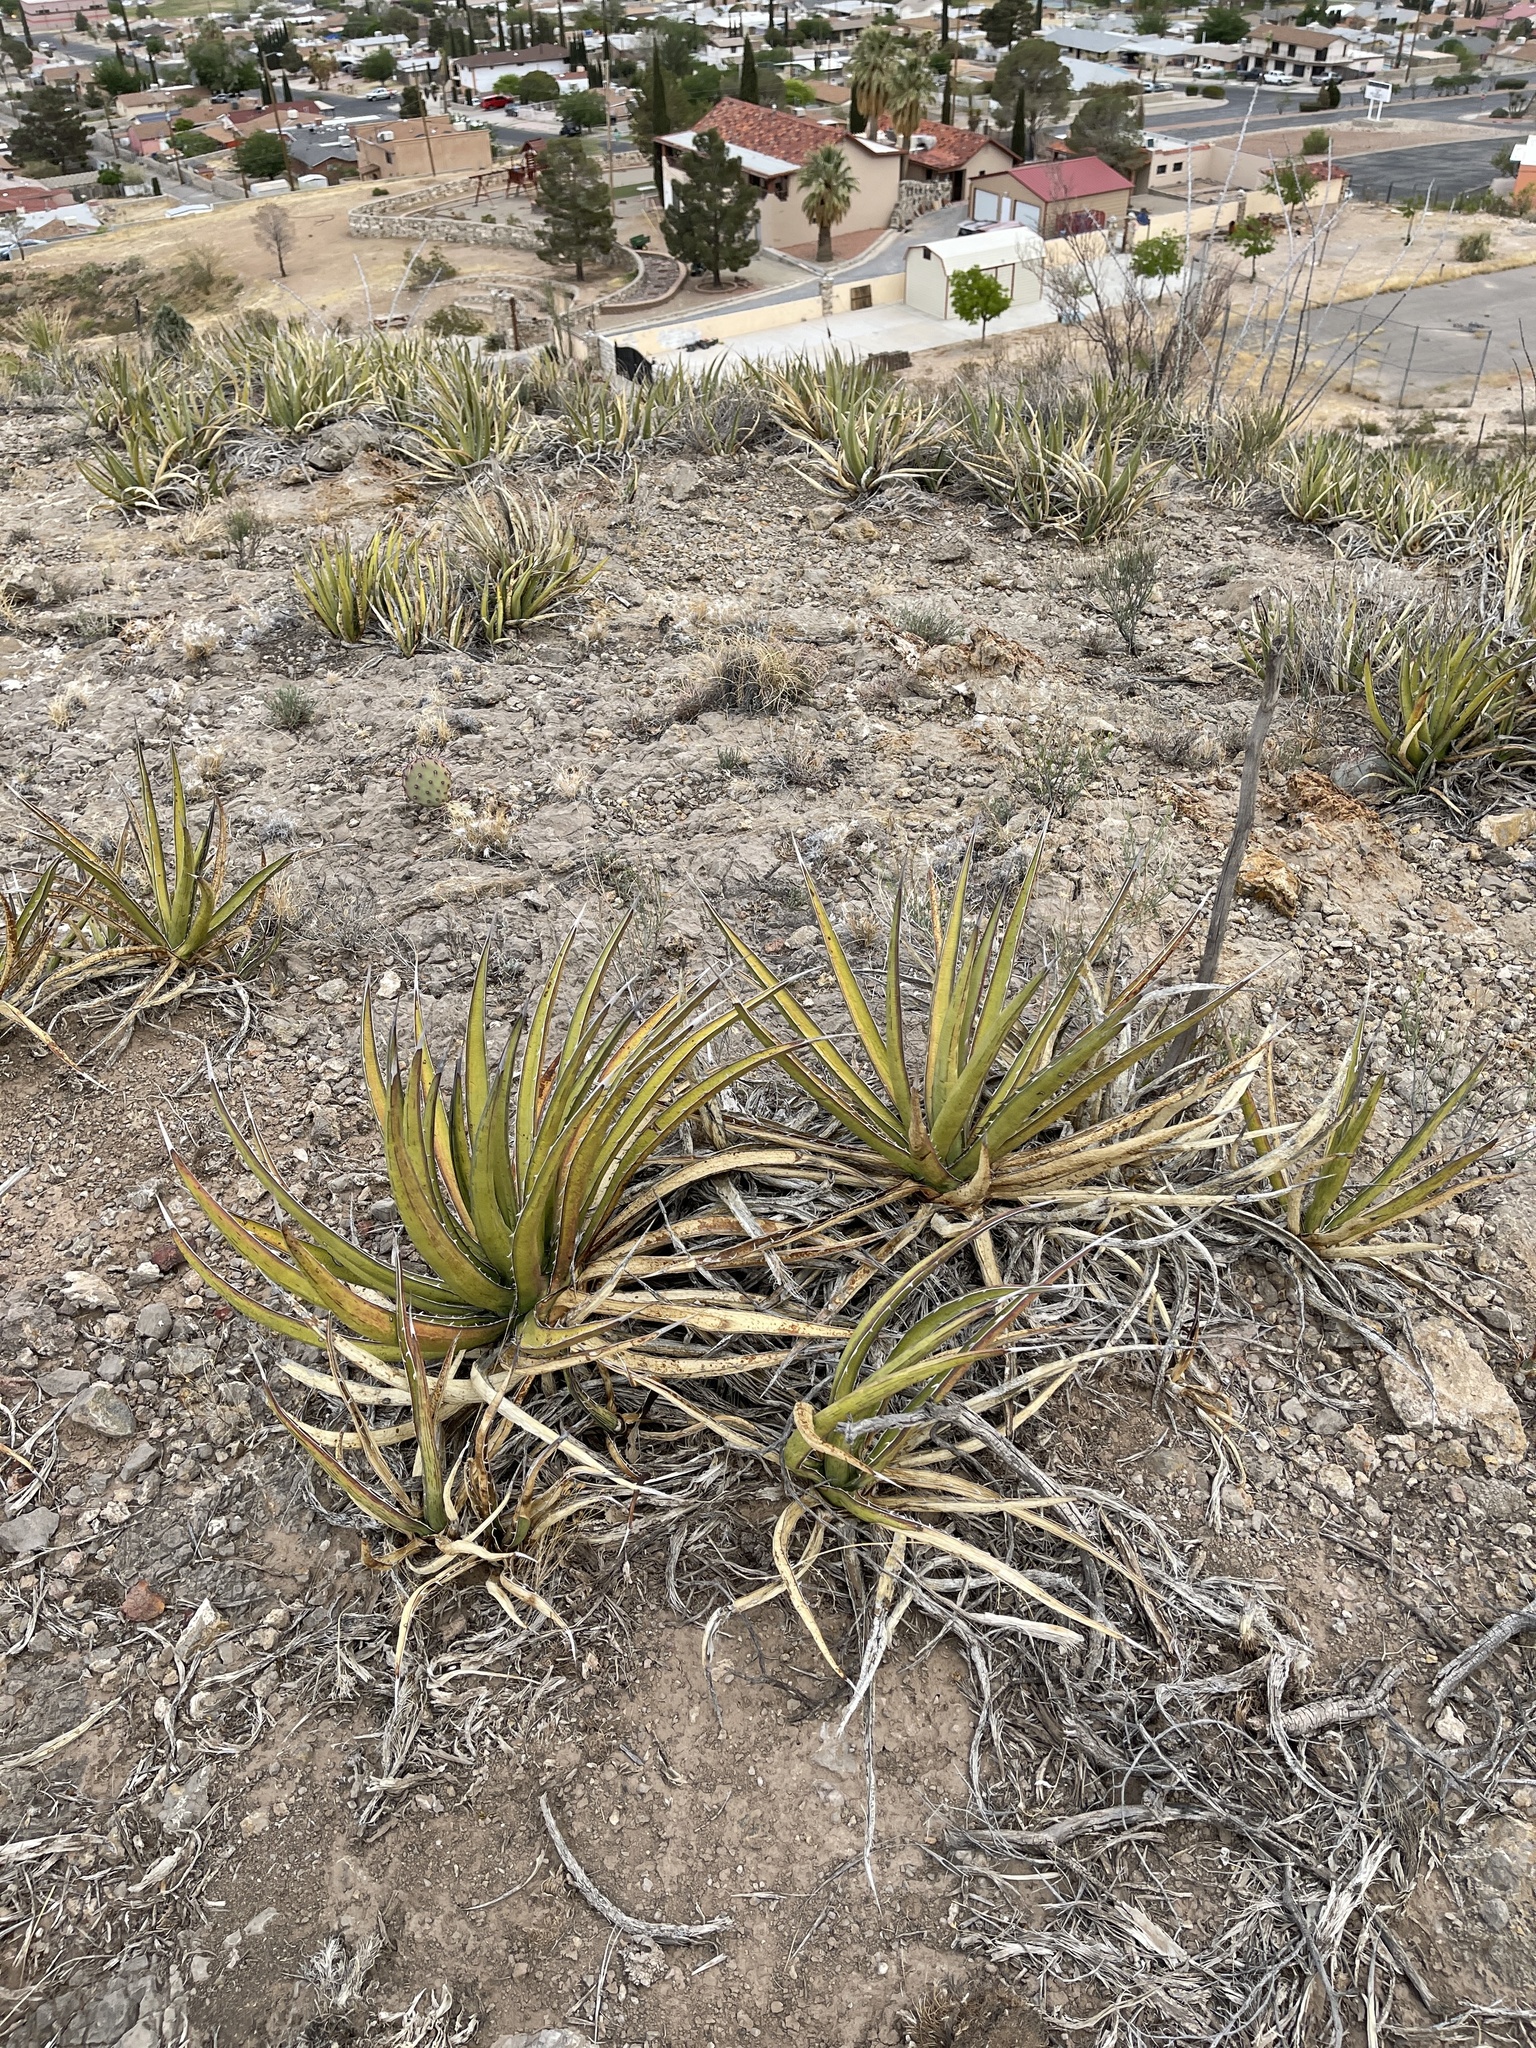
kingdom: Plantae
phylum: Tracheophyta
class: Liliopsida
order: Asparagales
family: Asparagaceae
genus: Agave
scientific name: Agave lechuguilla
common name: Lecheguilla agave
